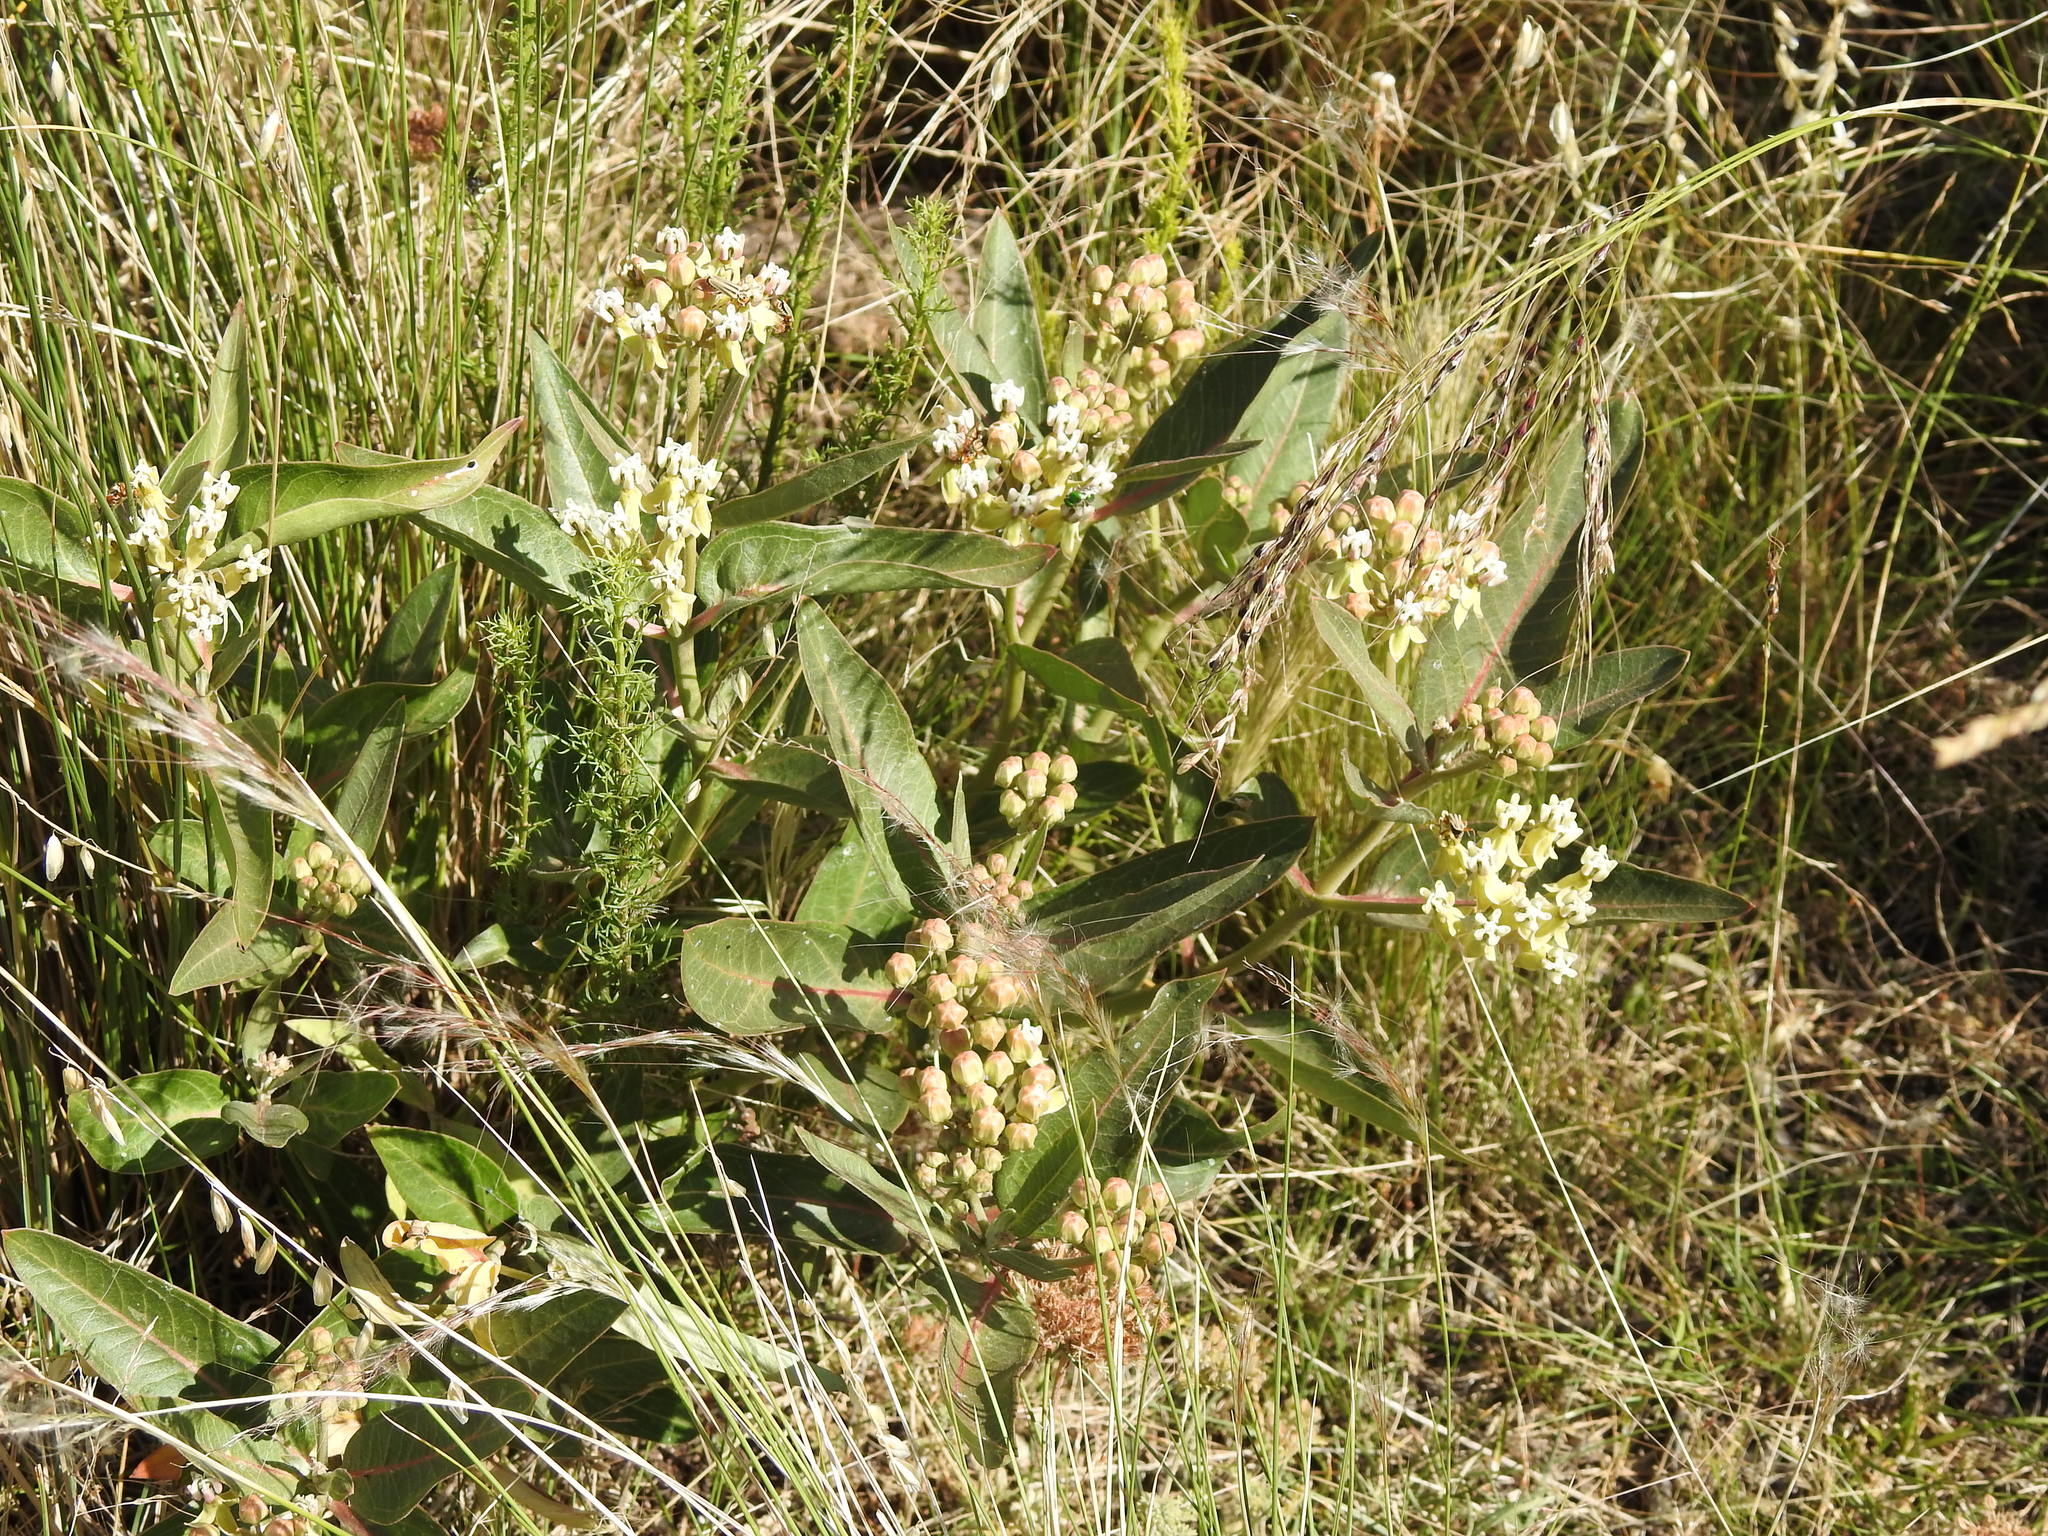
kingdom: Plantae
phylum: Tracheophyta
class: Magnoliopsida
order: Gentianales
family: Apocynaceae
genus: Asclepias
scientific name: Asclepias mellodora
